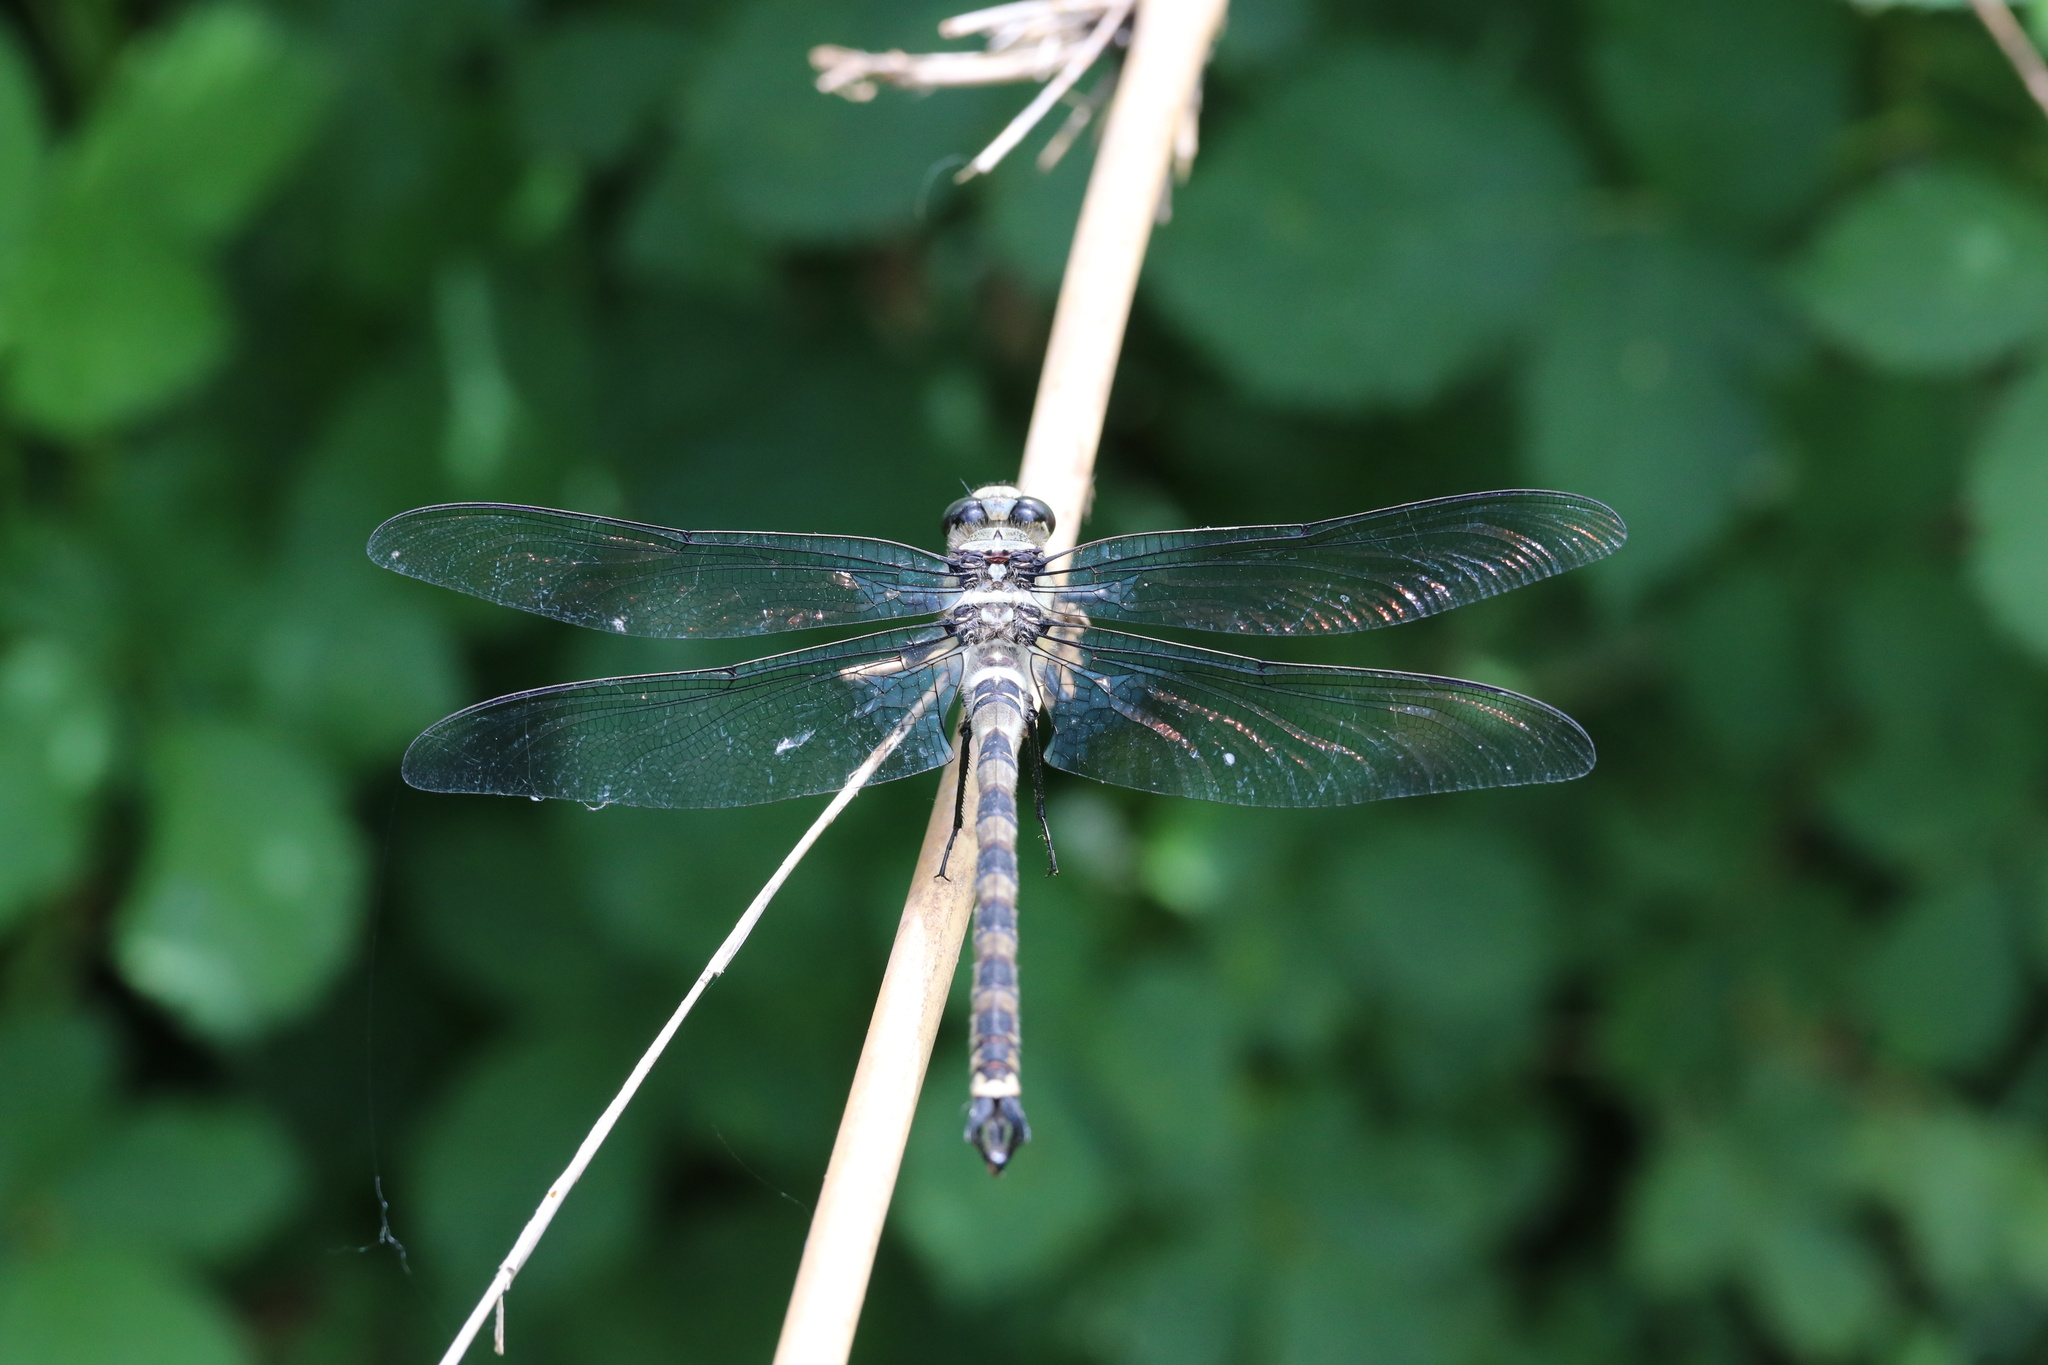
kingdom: Animalia
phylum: Arthropoda
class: Insecta
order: Odonata
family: Petaluridae
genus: Phenes
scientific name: Phenes raptor
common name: Chilean petaltail
